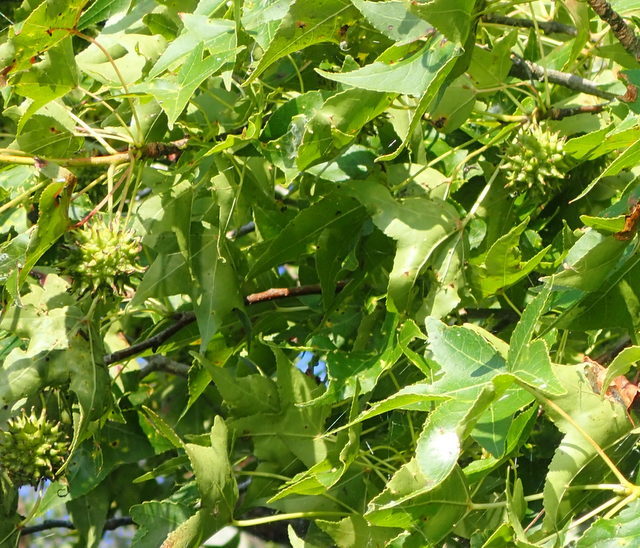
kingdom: Plantae
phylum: Tracheophyta
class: Magnoliopsida
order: Saxifragales
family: Altingiaceae
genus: Liquidambar
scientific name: Liquidambar styraciflua
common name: Sweet gum
